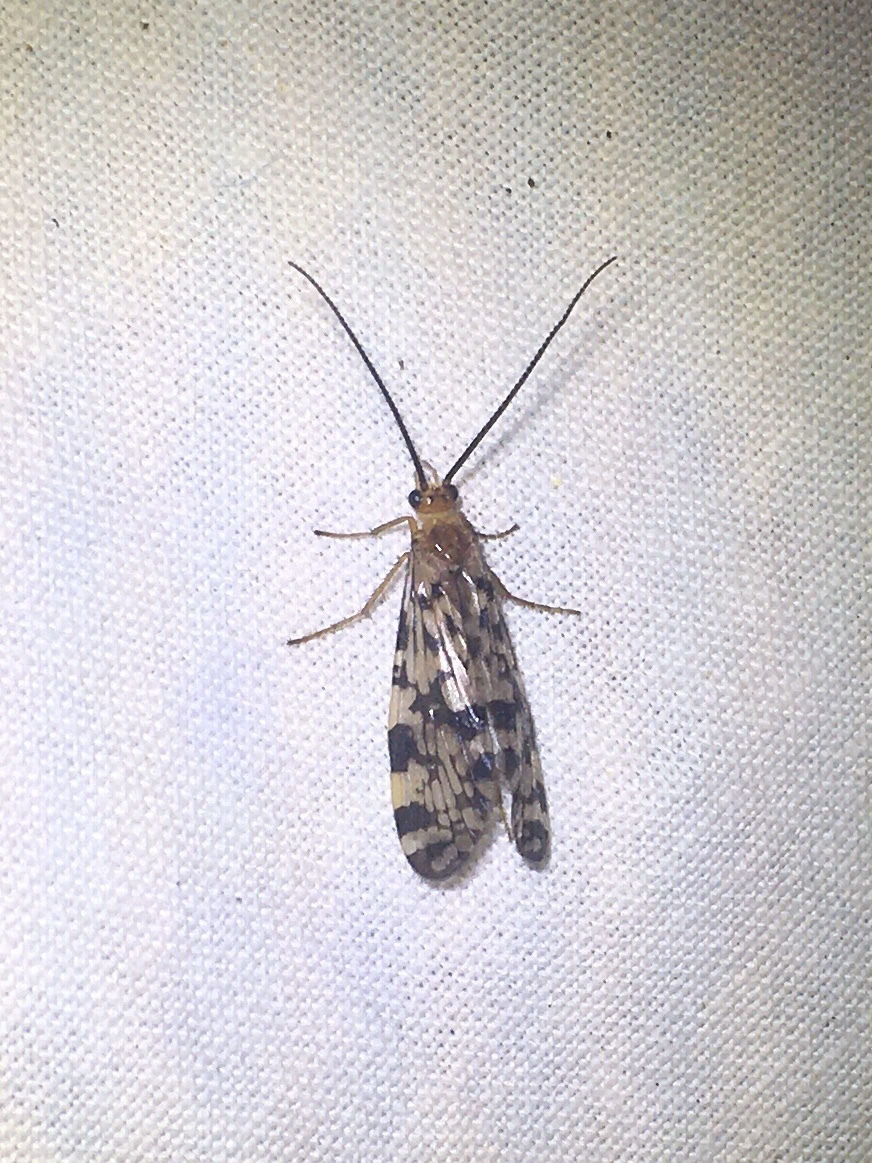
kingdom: Animalia
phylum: Arthropoda
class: Insecta
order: Trichoptera
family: Phryganeidae
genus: Banksiola
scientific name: Banksiola dossuaria
